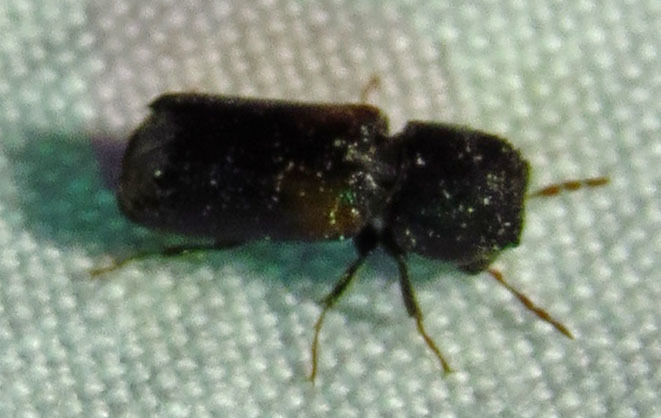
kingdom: Animalia
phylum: Arthropoda
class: Insecta
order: Coleoptera
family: Bostrichidae
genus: Xylobiops
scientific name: Xylobiops basilaris
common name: Red-shouldered bostrichid
